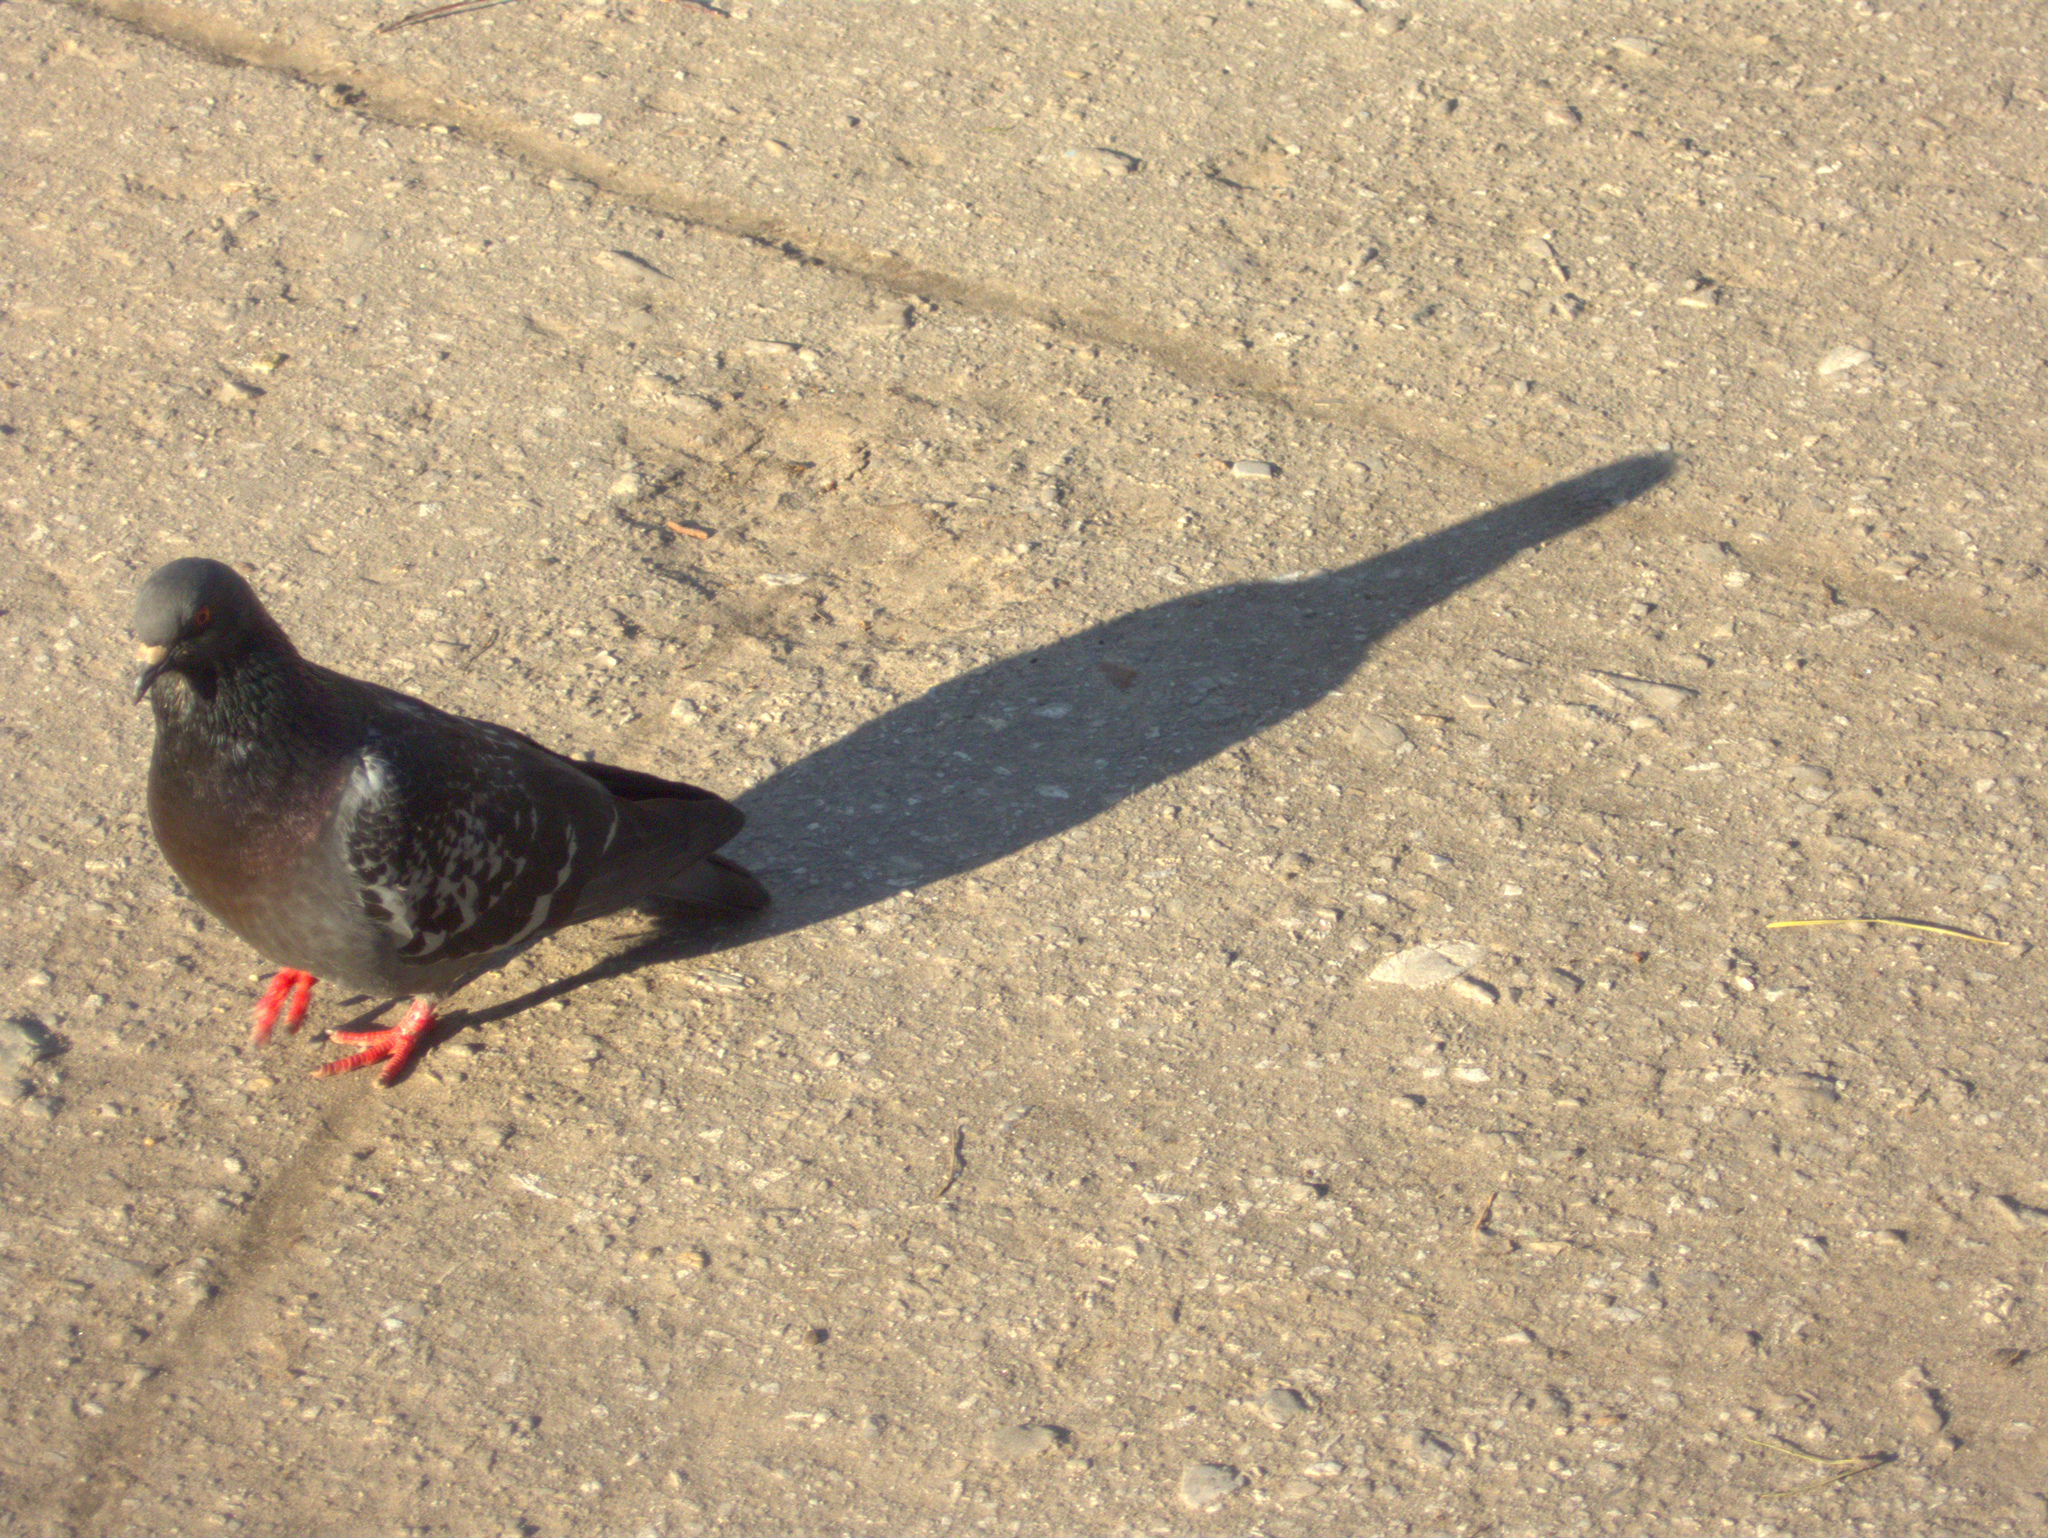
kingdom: Animalia
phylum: Chordata
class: Aves
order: Columbiformes
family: Columbidae
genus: Columba
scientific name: Columba livia
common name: Rock pigeon
